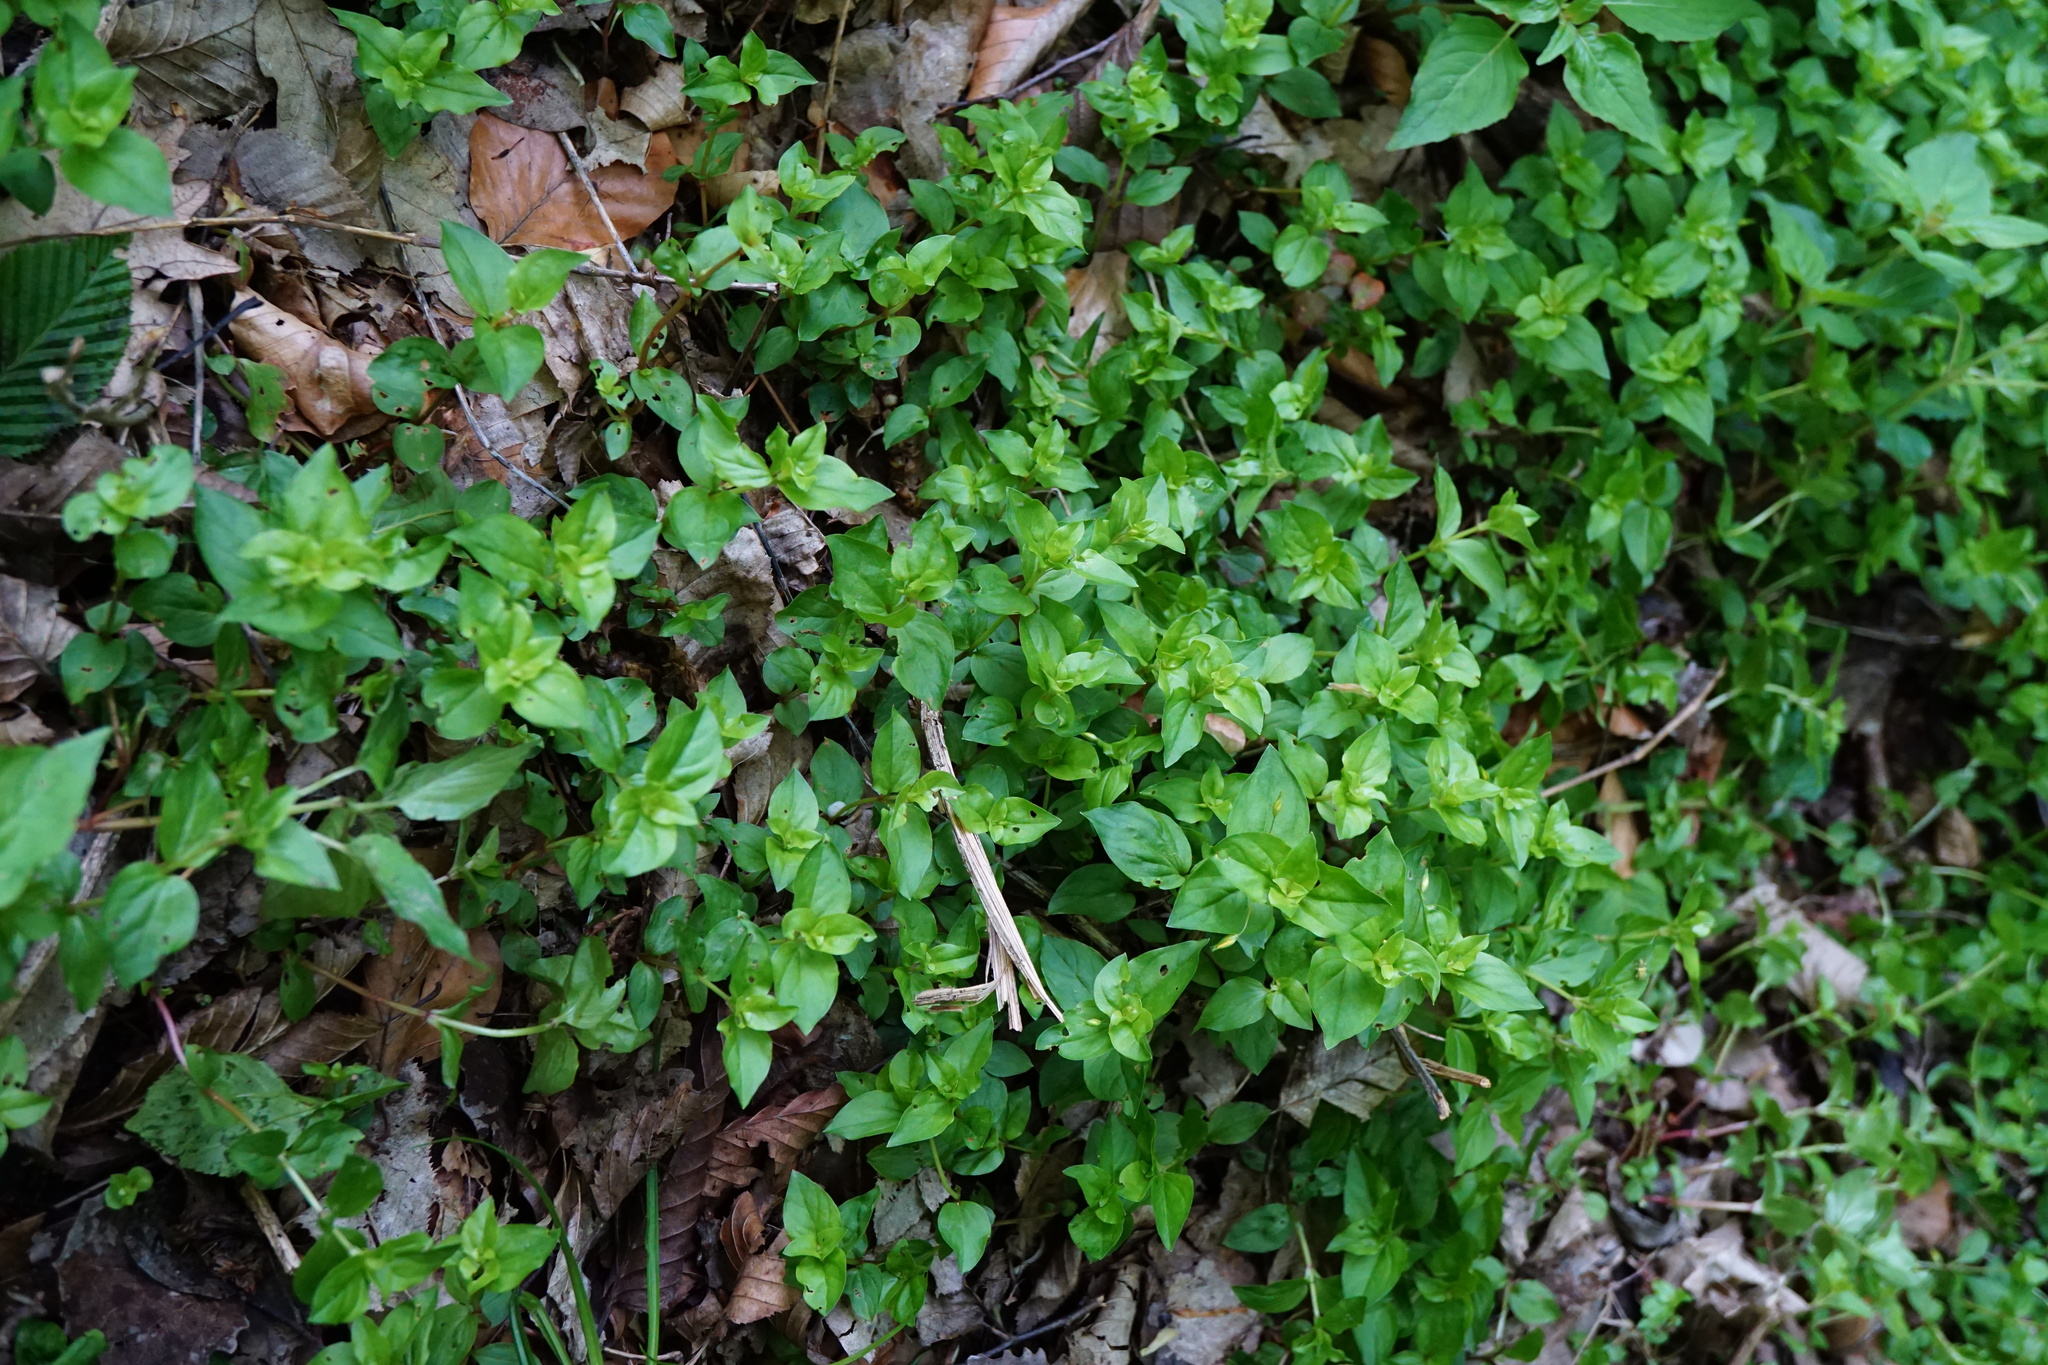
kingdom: Plantae
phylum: Tracheophyta
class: Magnoliopsida
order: Ericales
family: Primulaceae
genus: Lysimachia
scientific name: Lysimachia nemorum
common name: Yellow pimpernel
